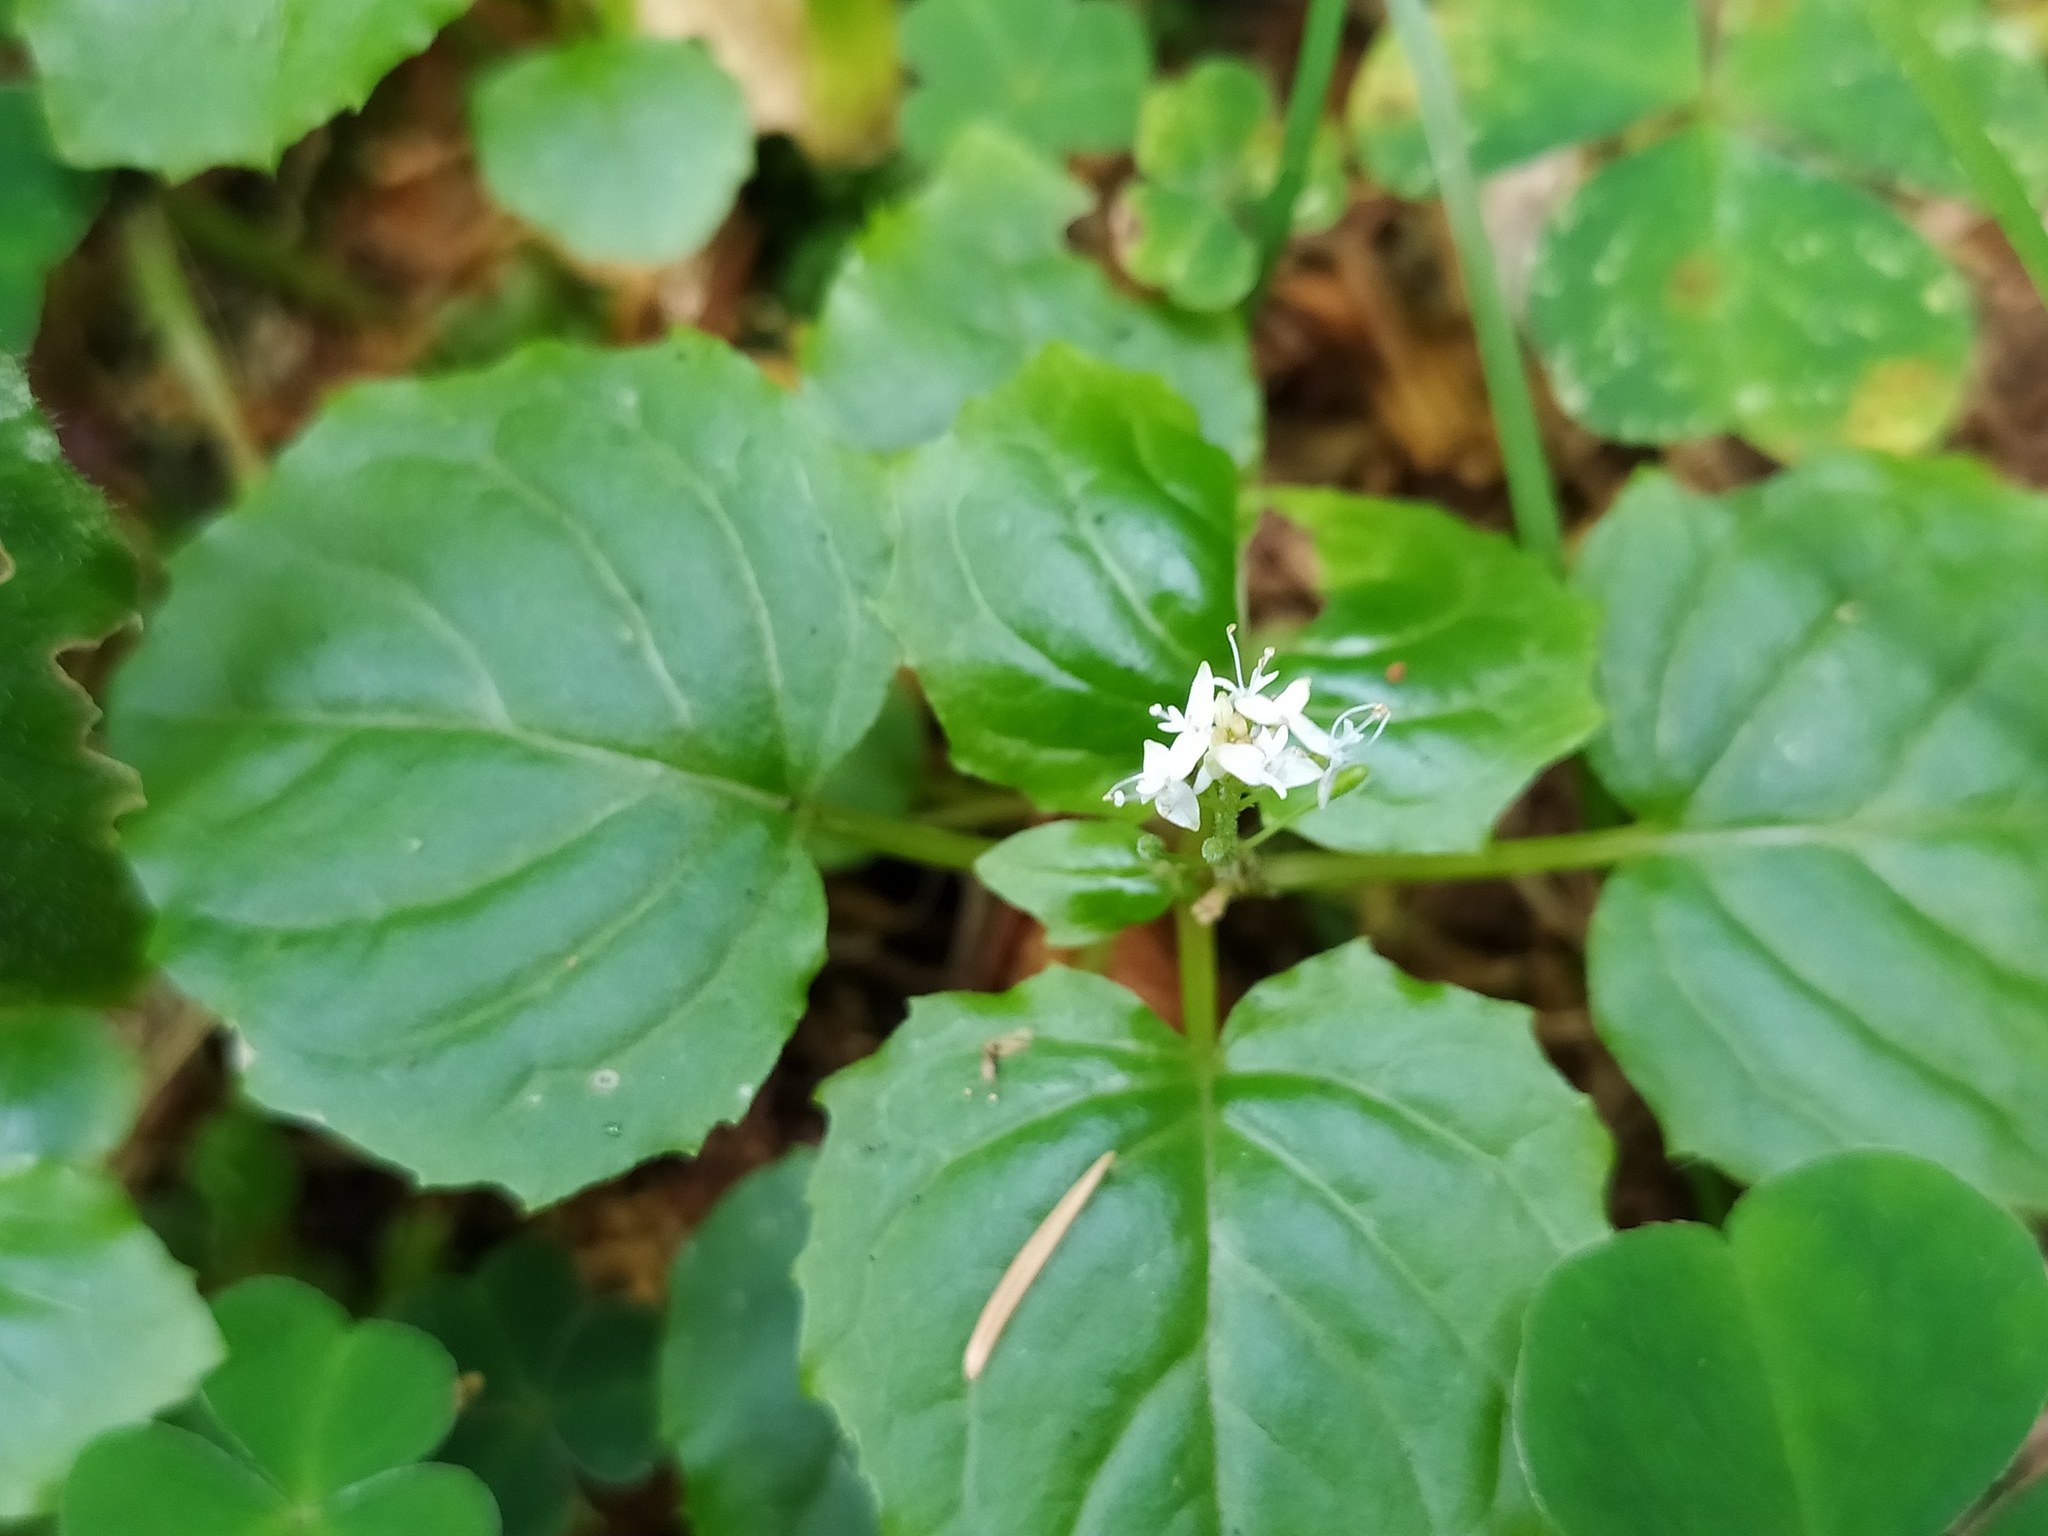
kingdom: Plantae
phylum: Tracheophyta
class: Magnoliopsida
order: Myrtales
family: Onagraceae
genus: Circaea
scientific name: Circaea alpina
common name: Alpine enchanter's-nightshade
